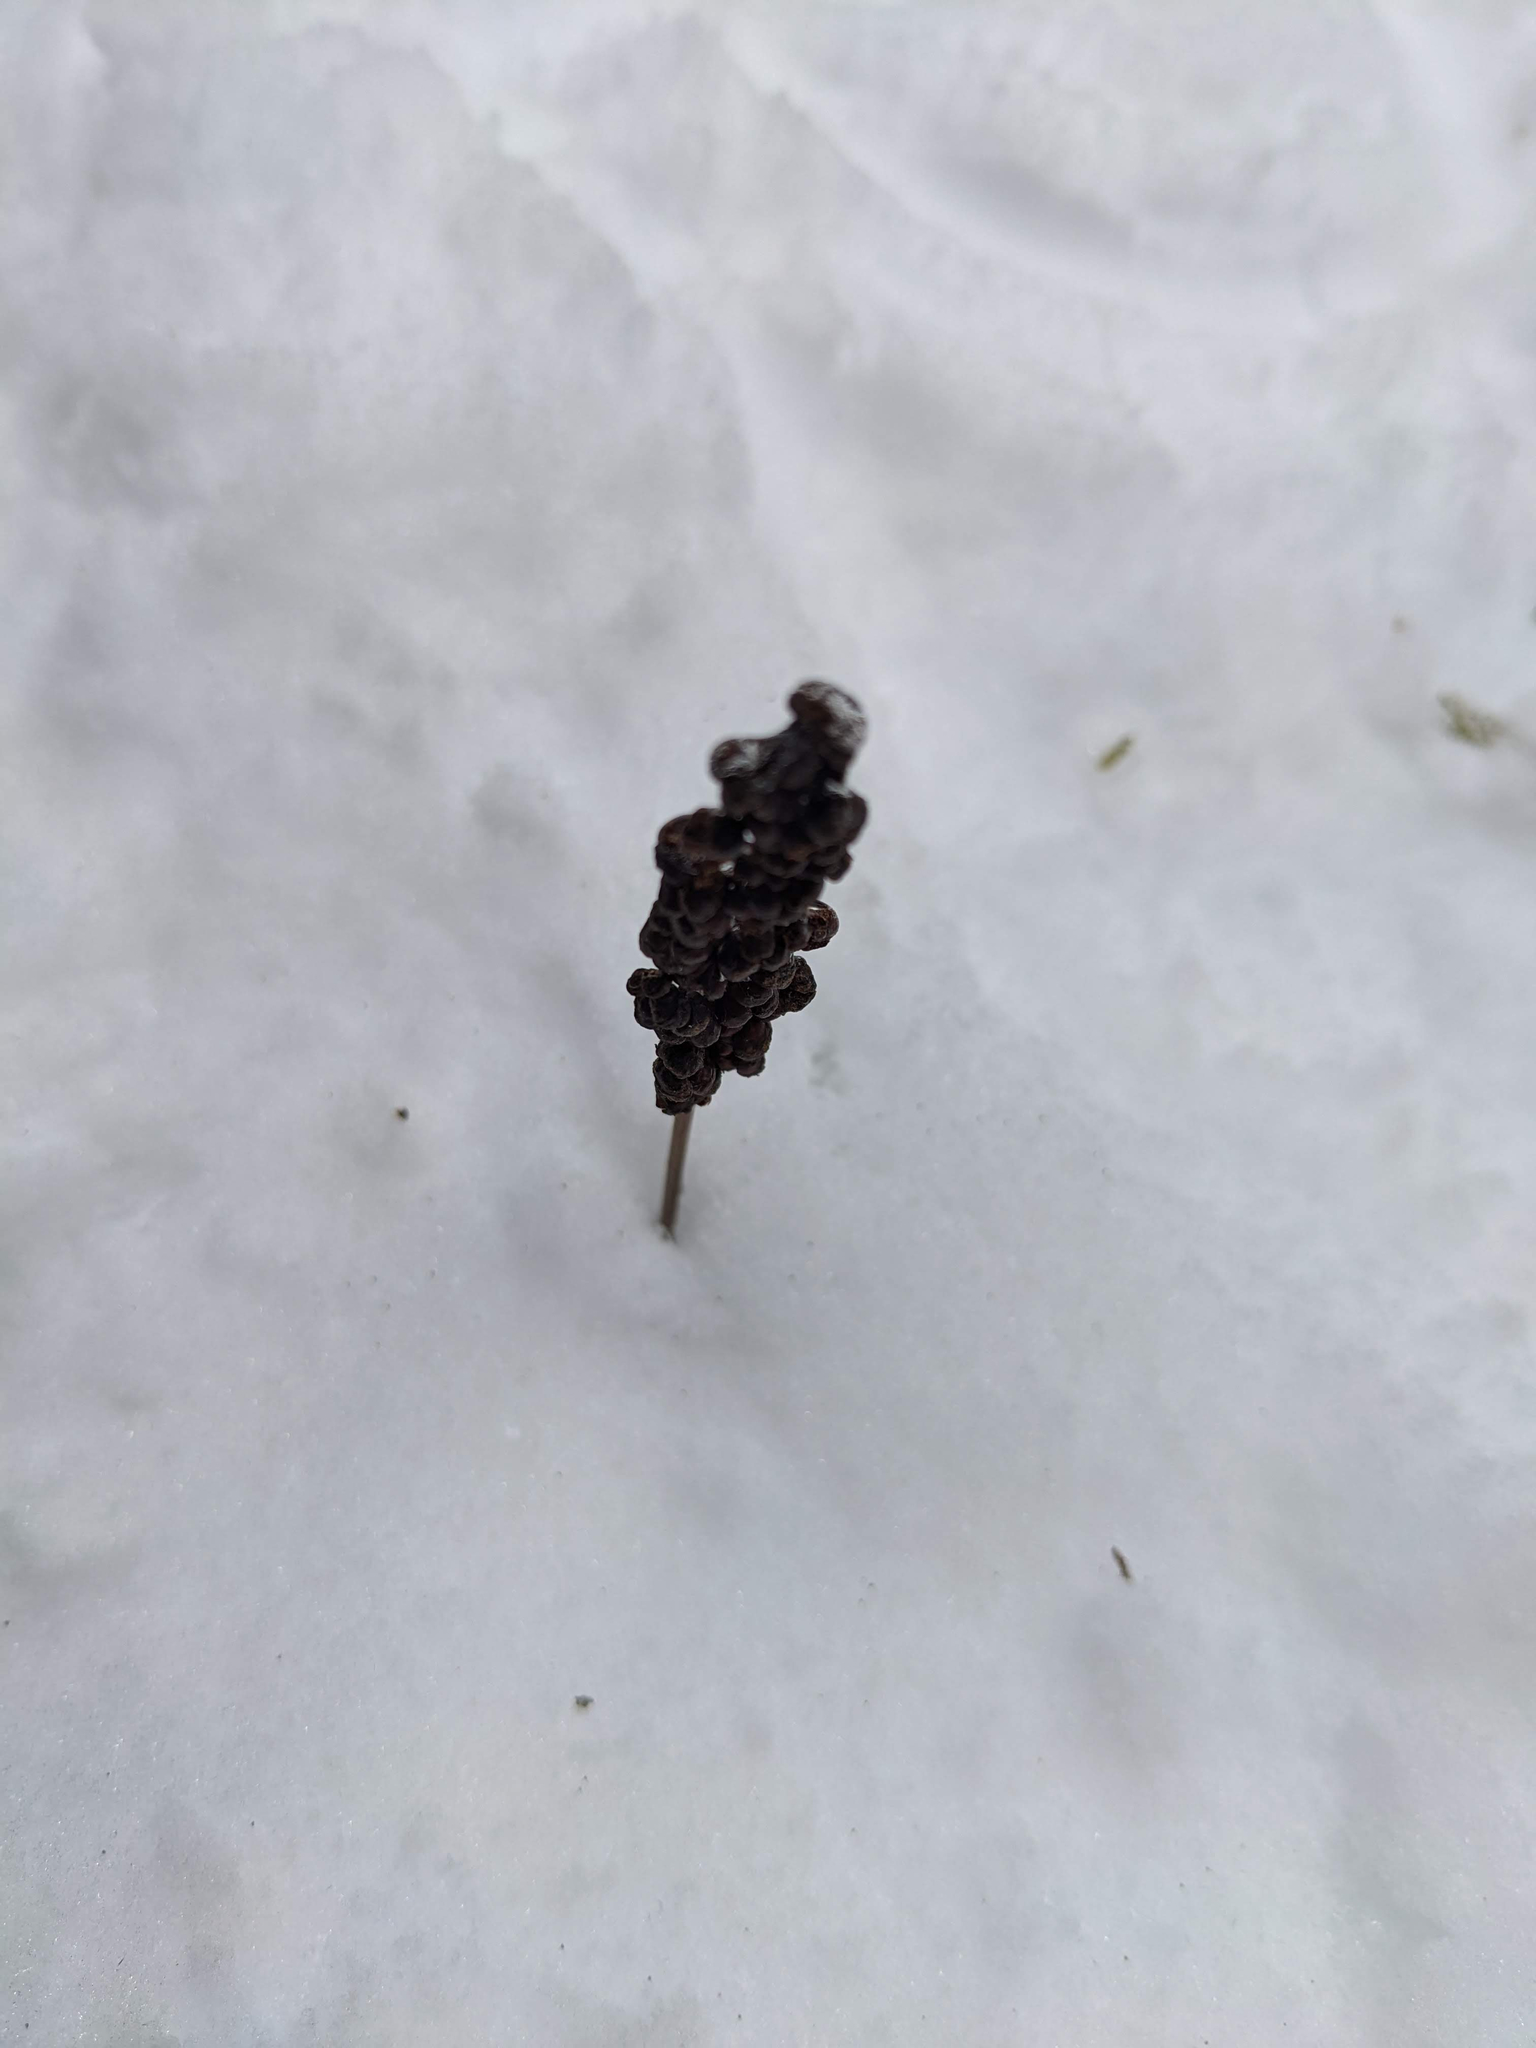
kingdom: Plantae
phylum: Tracheophyta
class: Polypodiopsida
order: Polypodiales
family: Onocleaceae
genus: Onoclea
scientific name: Onoclea sensibilis
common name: Sensitive fern
